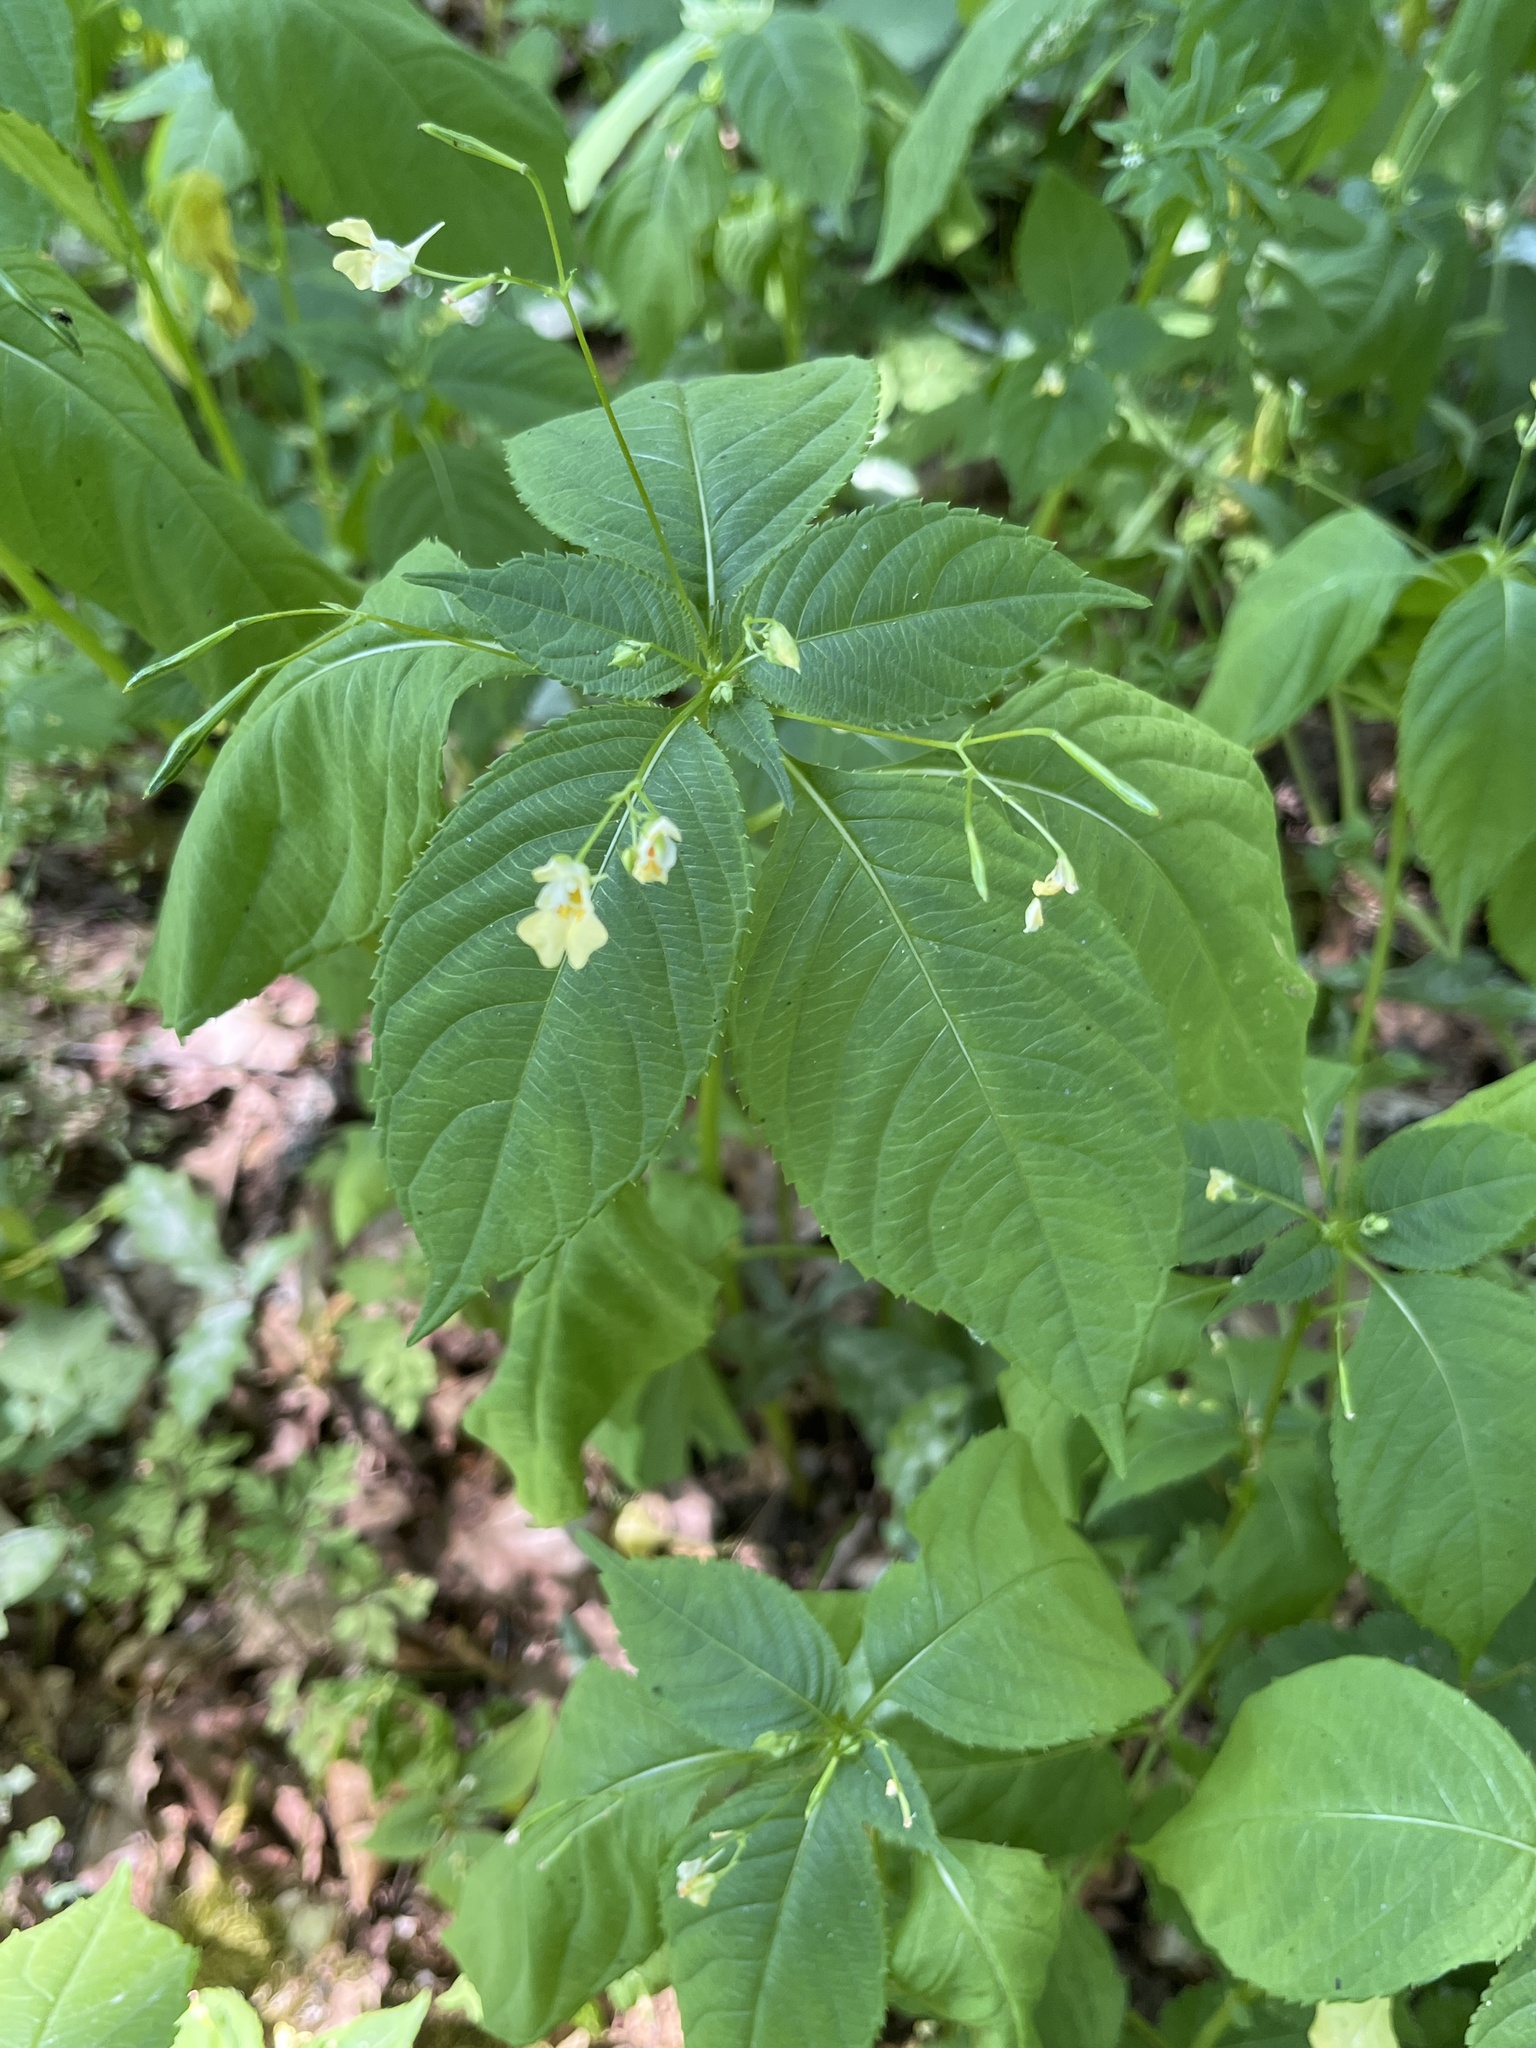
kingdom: Plantae
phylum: Tracheophyta
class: Magnoliopsida
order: Ericales
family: Balsaminaceae
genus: Impatiens
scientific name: Impatiens parviflora
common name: Small balsam
